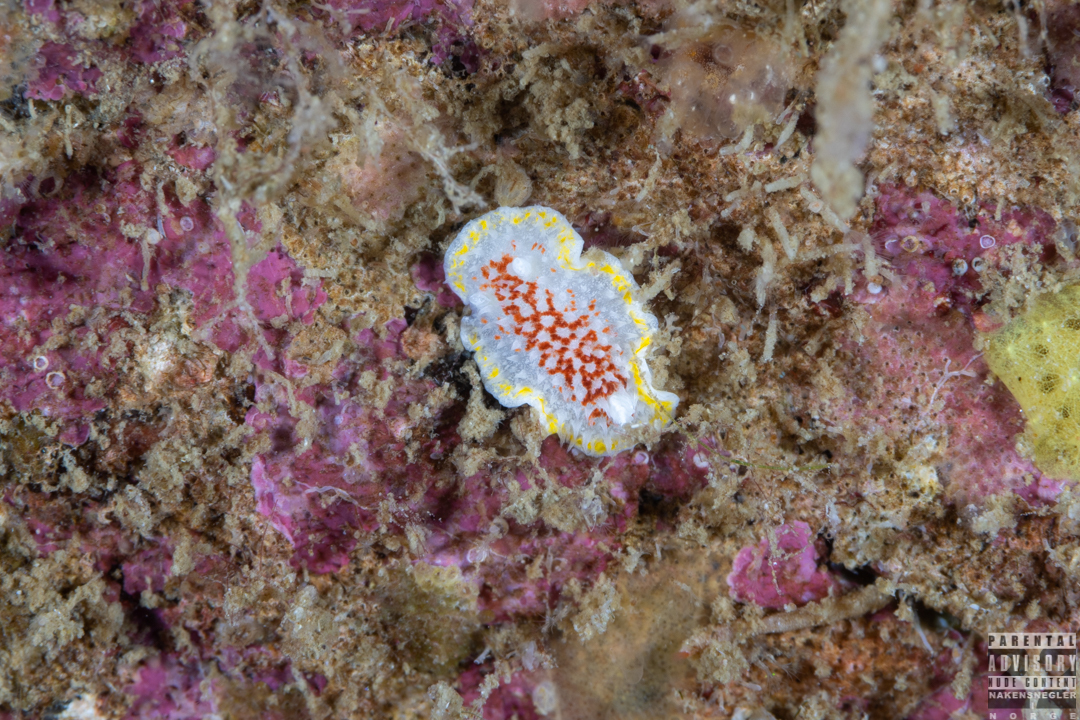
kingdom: Animalia
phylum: Mollusca
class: Gastropoda
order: Nudibranchia
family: Calycidorididae
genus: Diaphorodoris
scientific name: Diaphorodoris luteocincta
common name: Fried egg nudibranch
